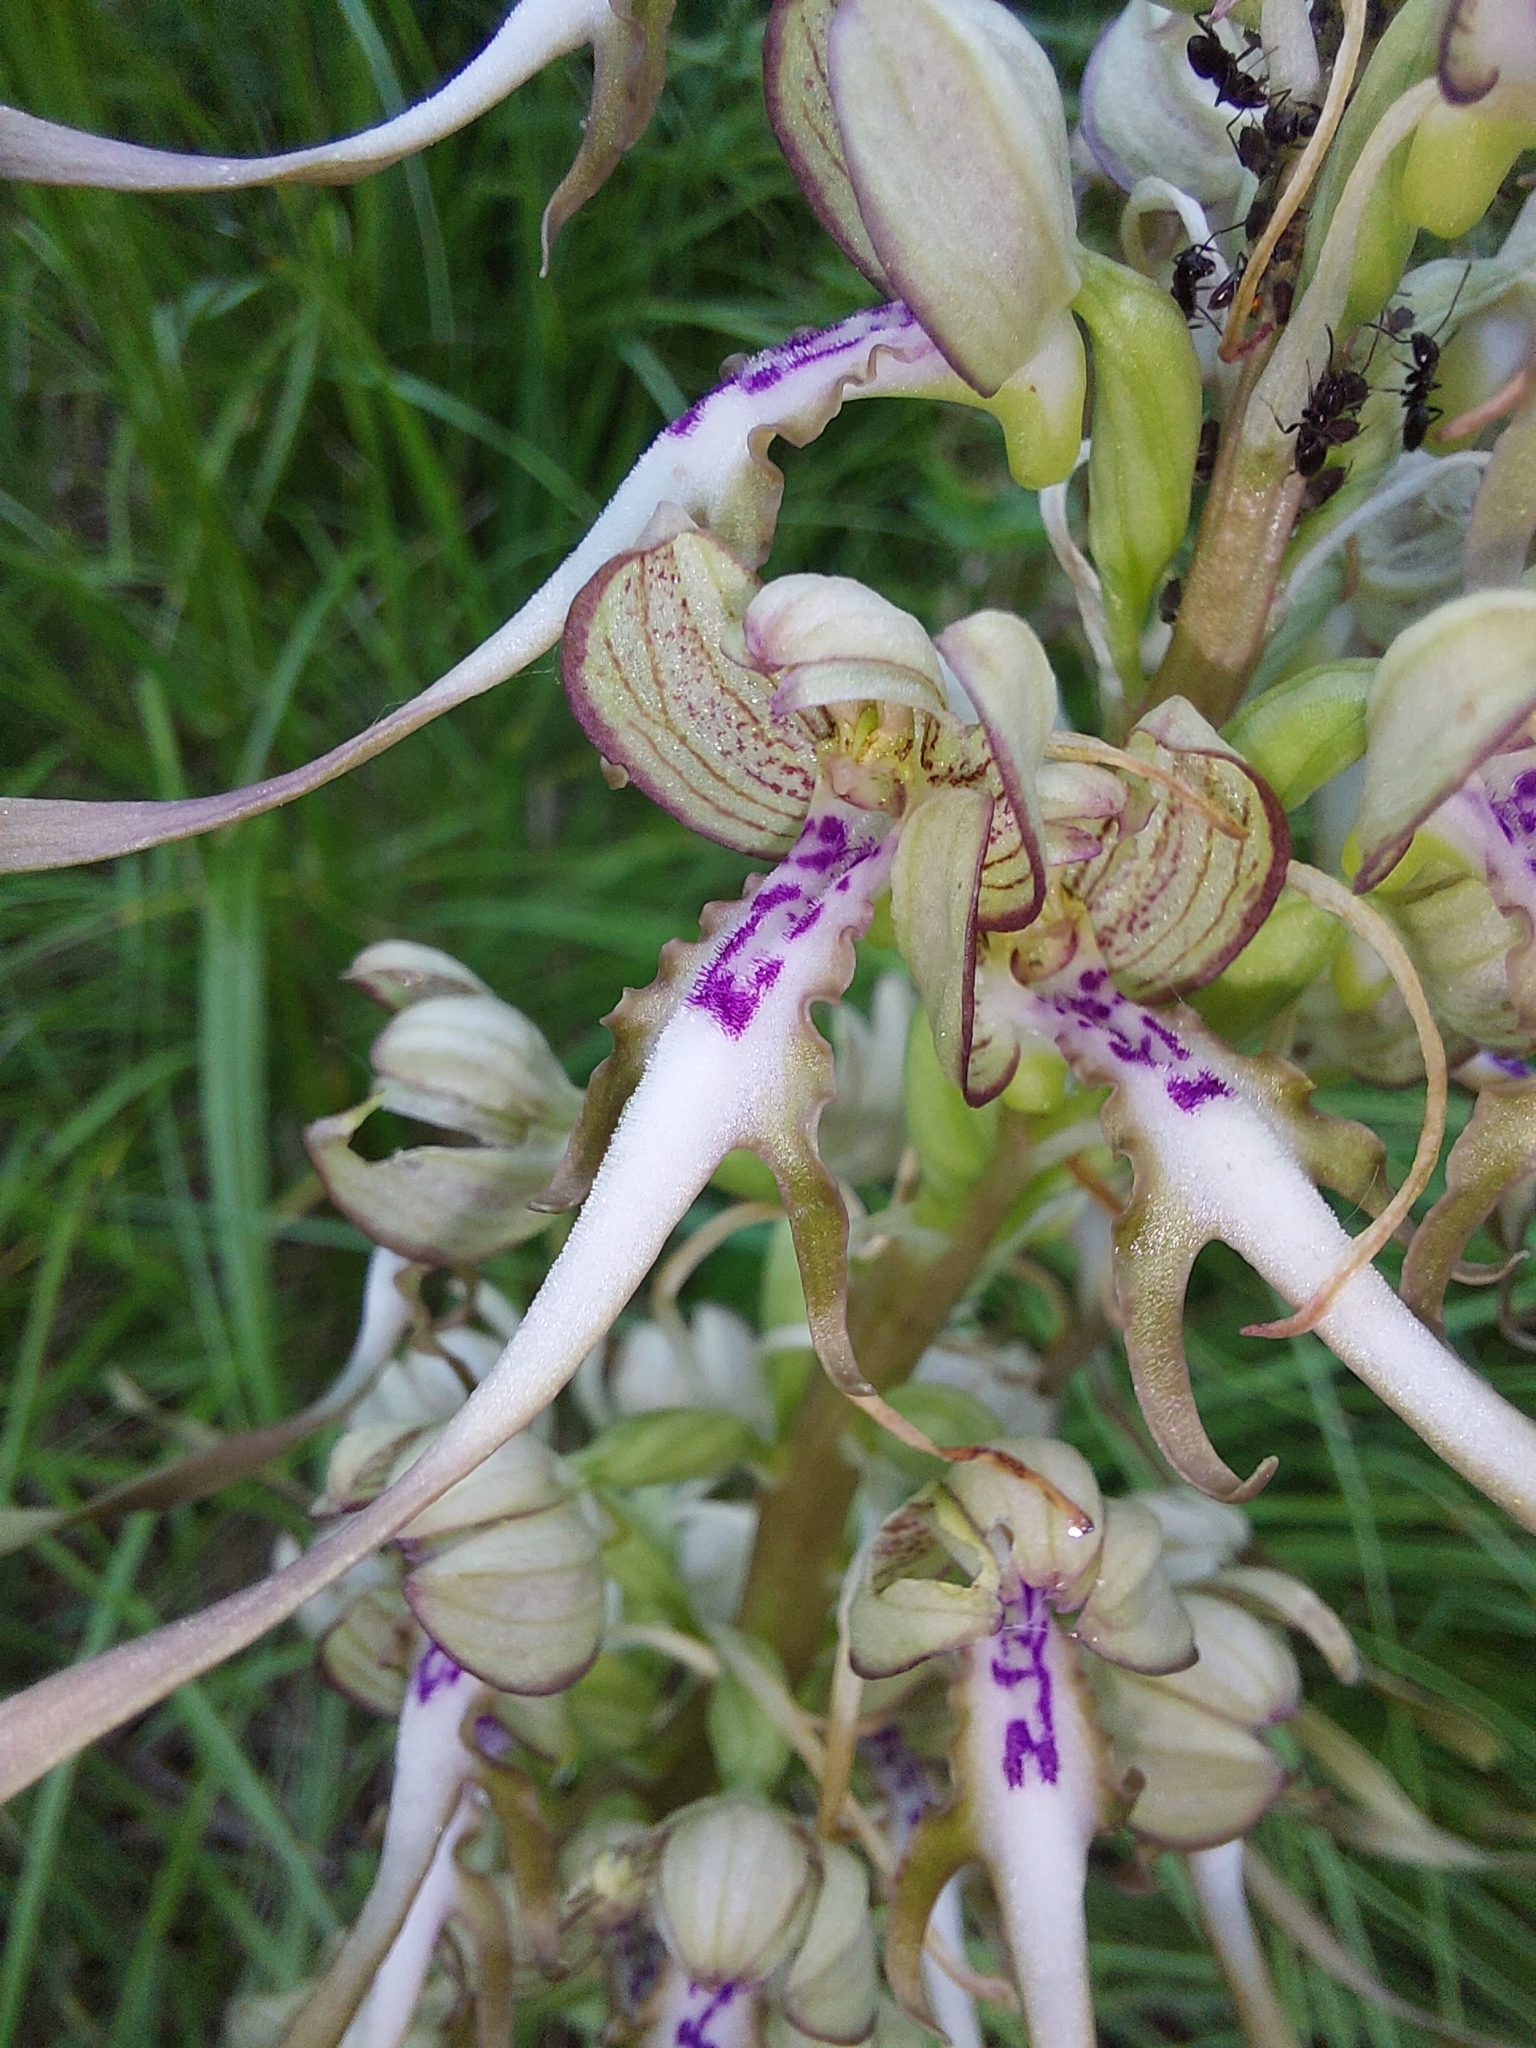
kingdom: Plantae
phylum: Tracheophyta
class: Liliopsida
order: Asparagales
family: Orchidaceae
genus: Himantoglossum
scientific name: Himantoglossum hircinum
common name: Lizard orchid
